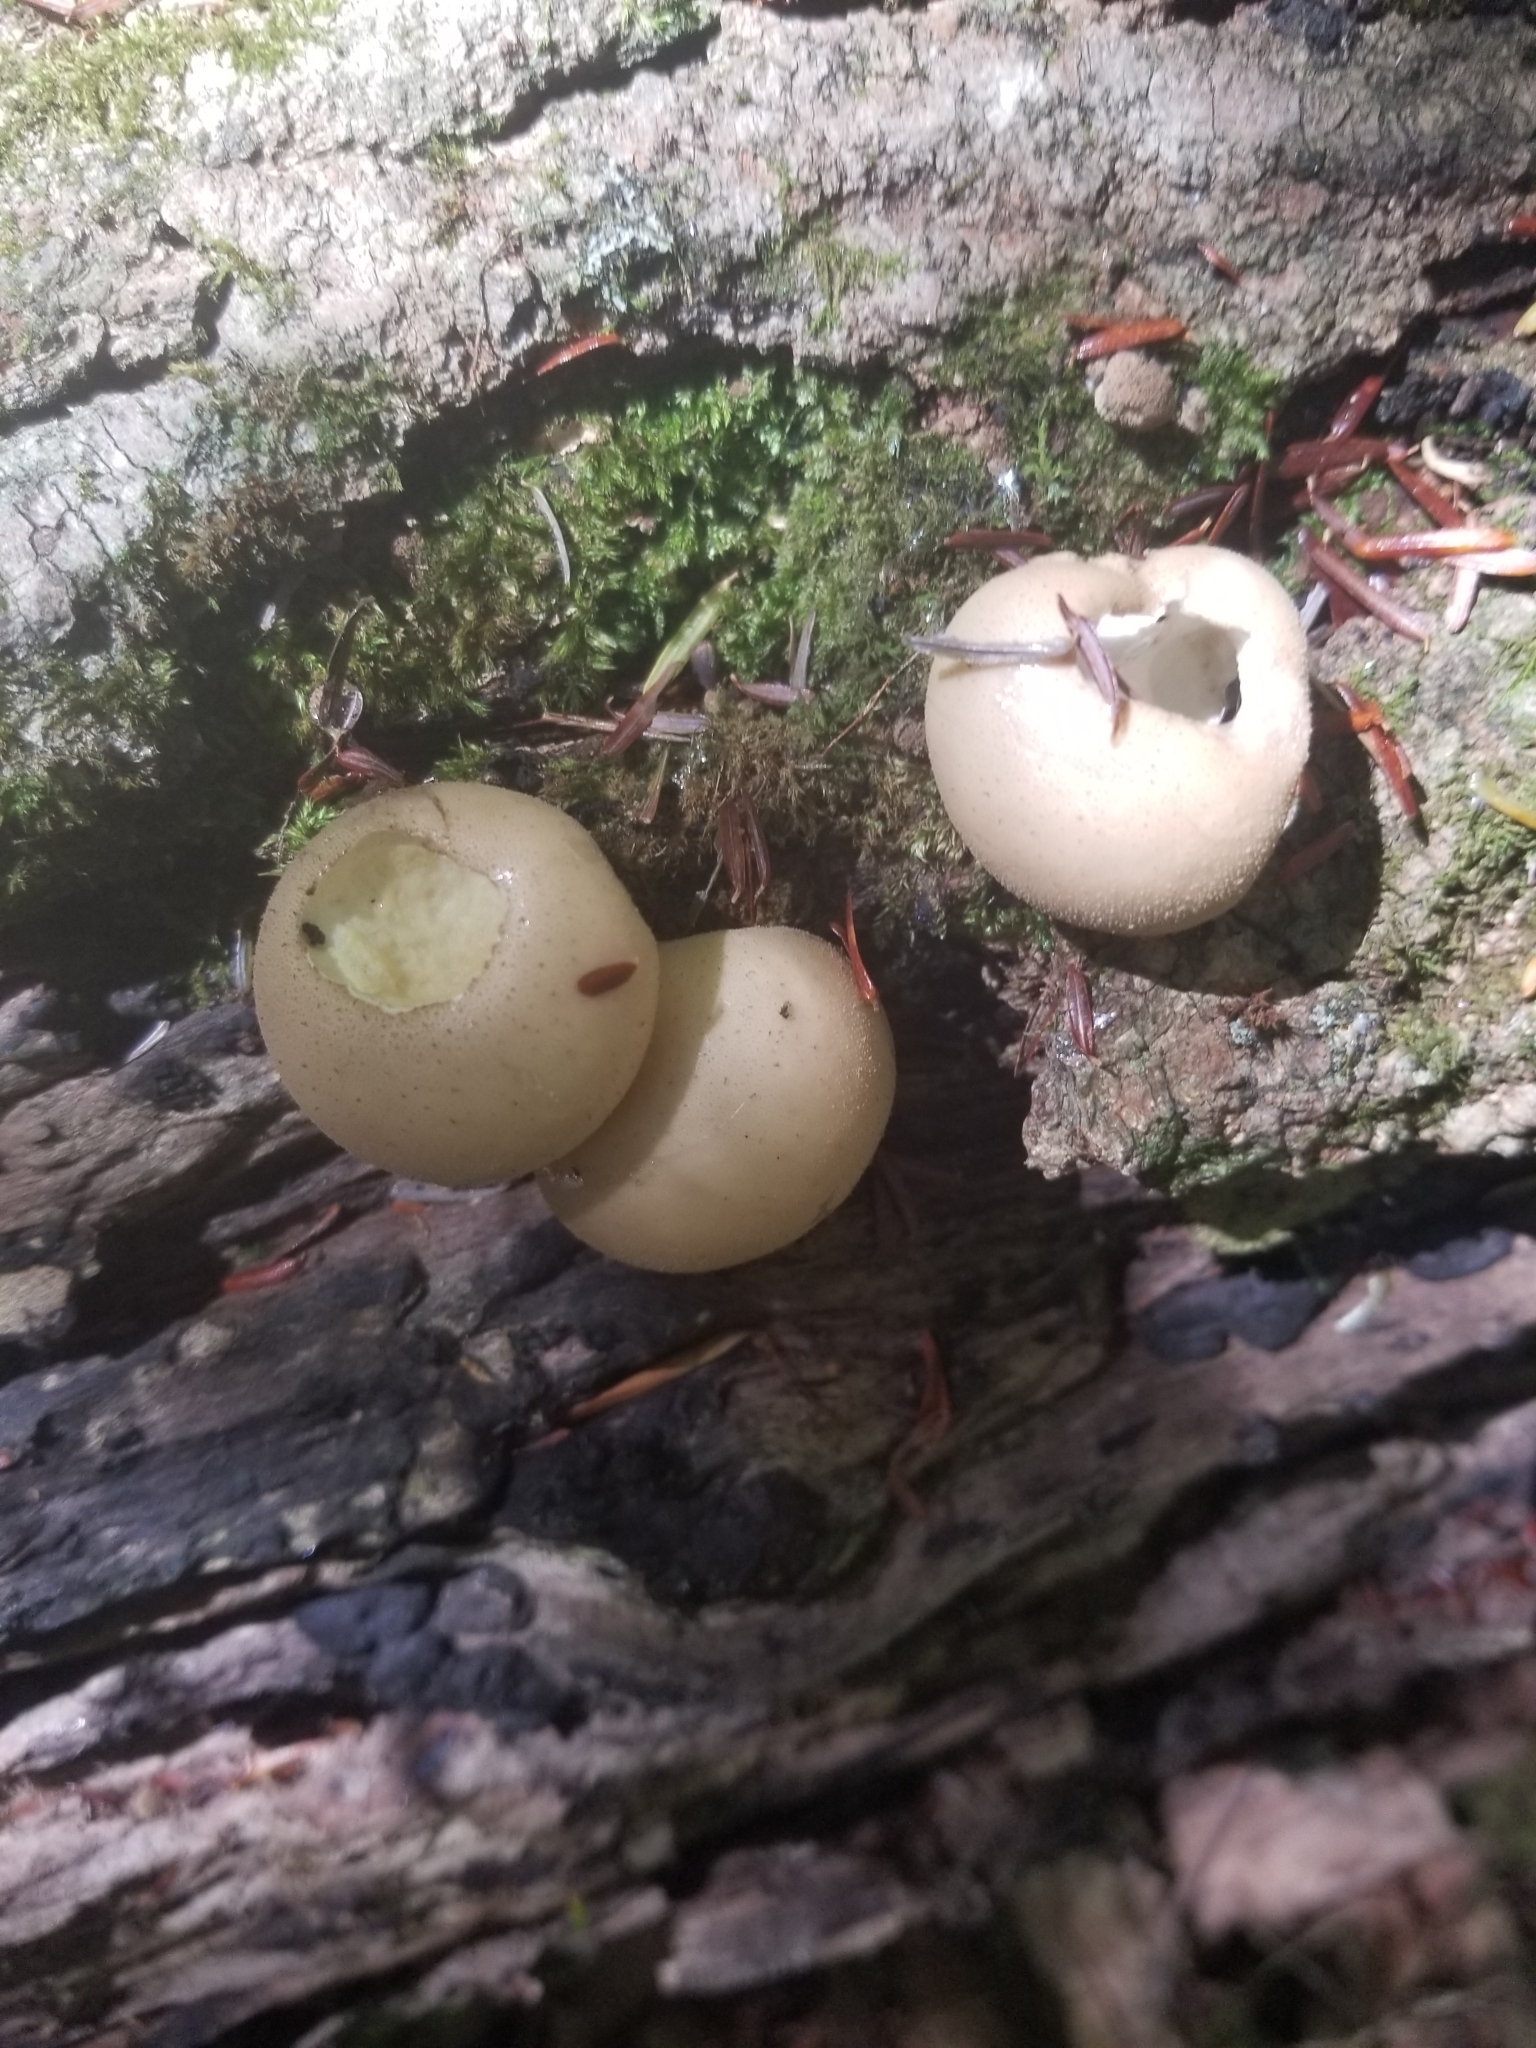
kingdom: Fungi
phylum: Basidiomycota
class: Agaricomycetes
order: Agaricales
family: Lycoperdaceae
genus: Apioperdon
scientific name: Apioperdon pyriforme
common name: Pear-shaped puffball
